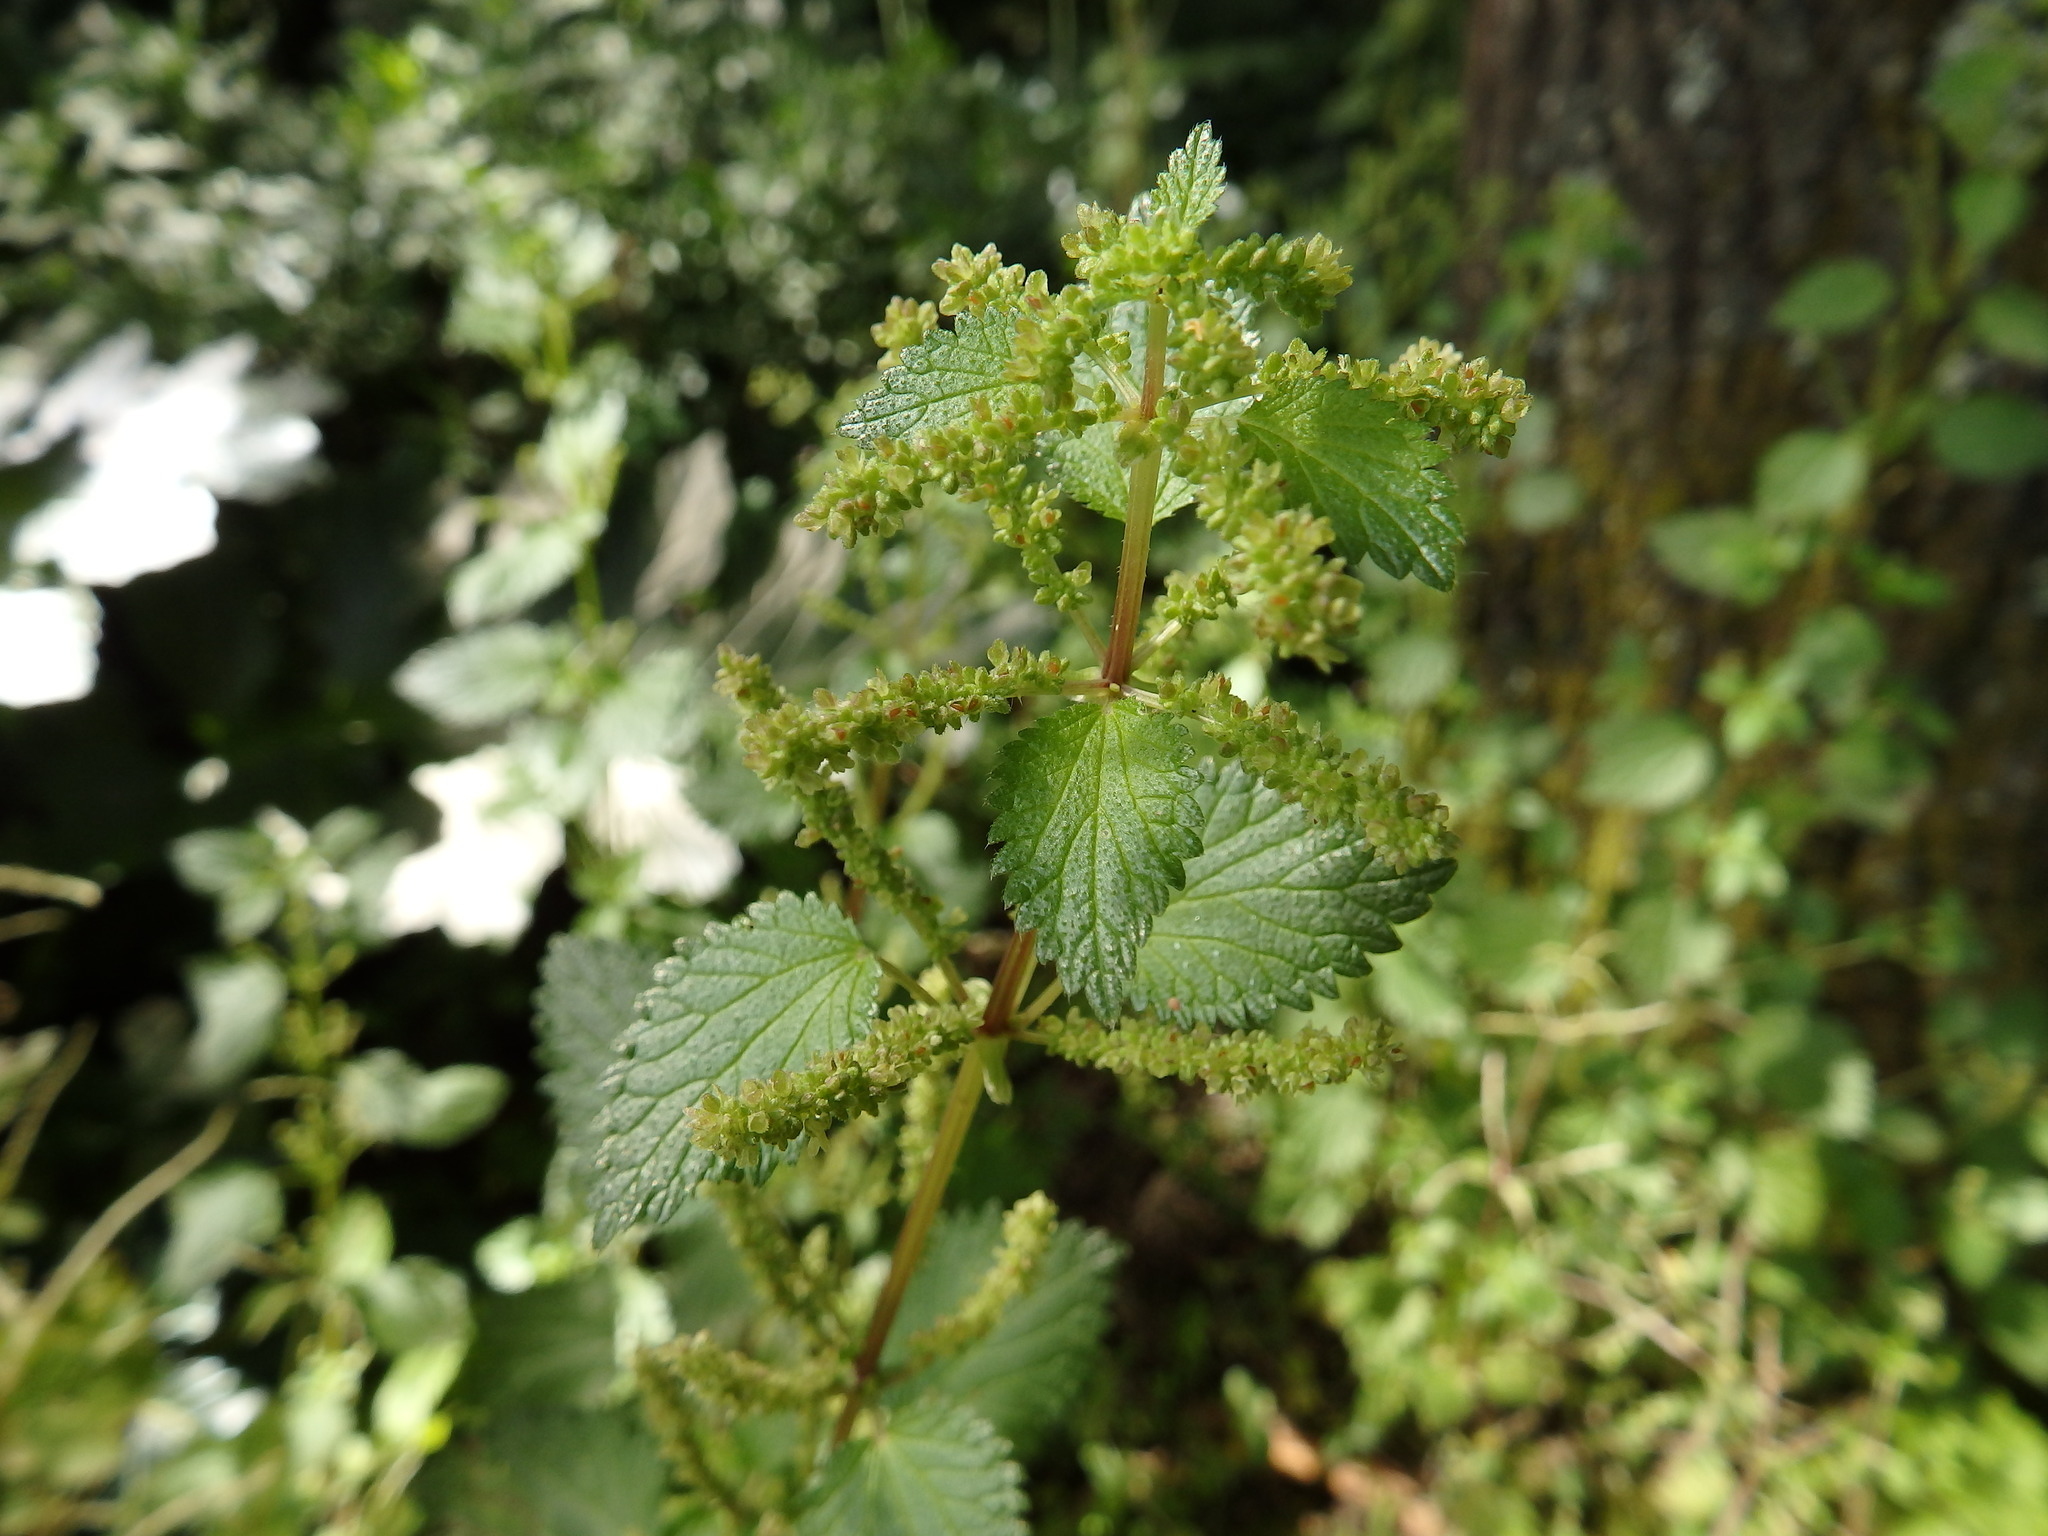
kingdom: Plantae
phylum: Tracheophyta
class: Magnoliopsida
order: Rosales
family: Urticaceae
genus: Urtica
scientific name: Urtica membranacea
